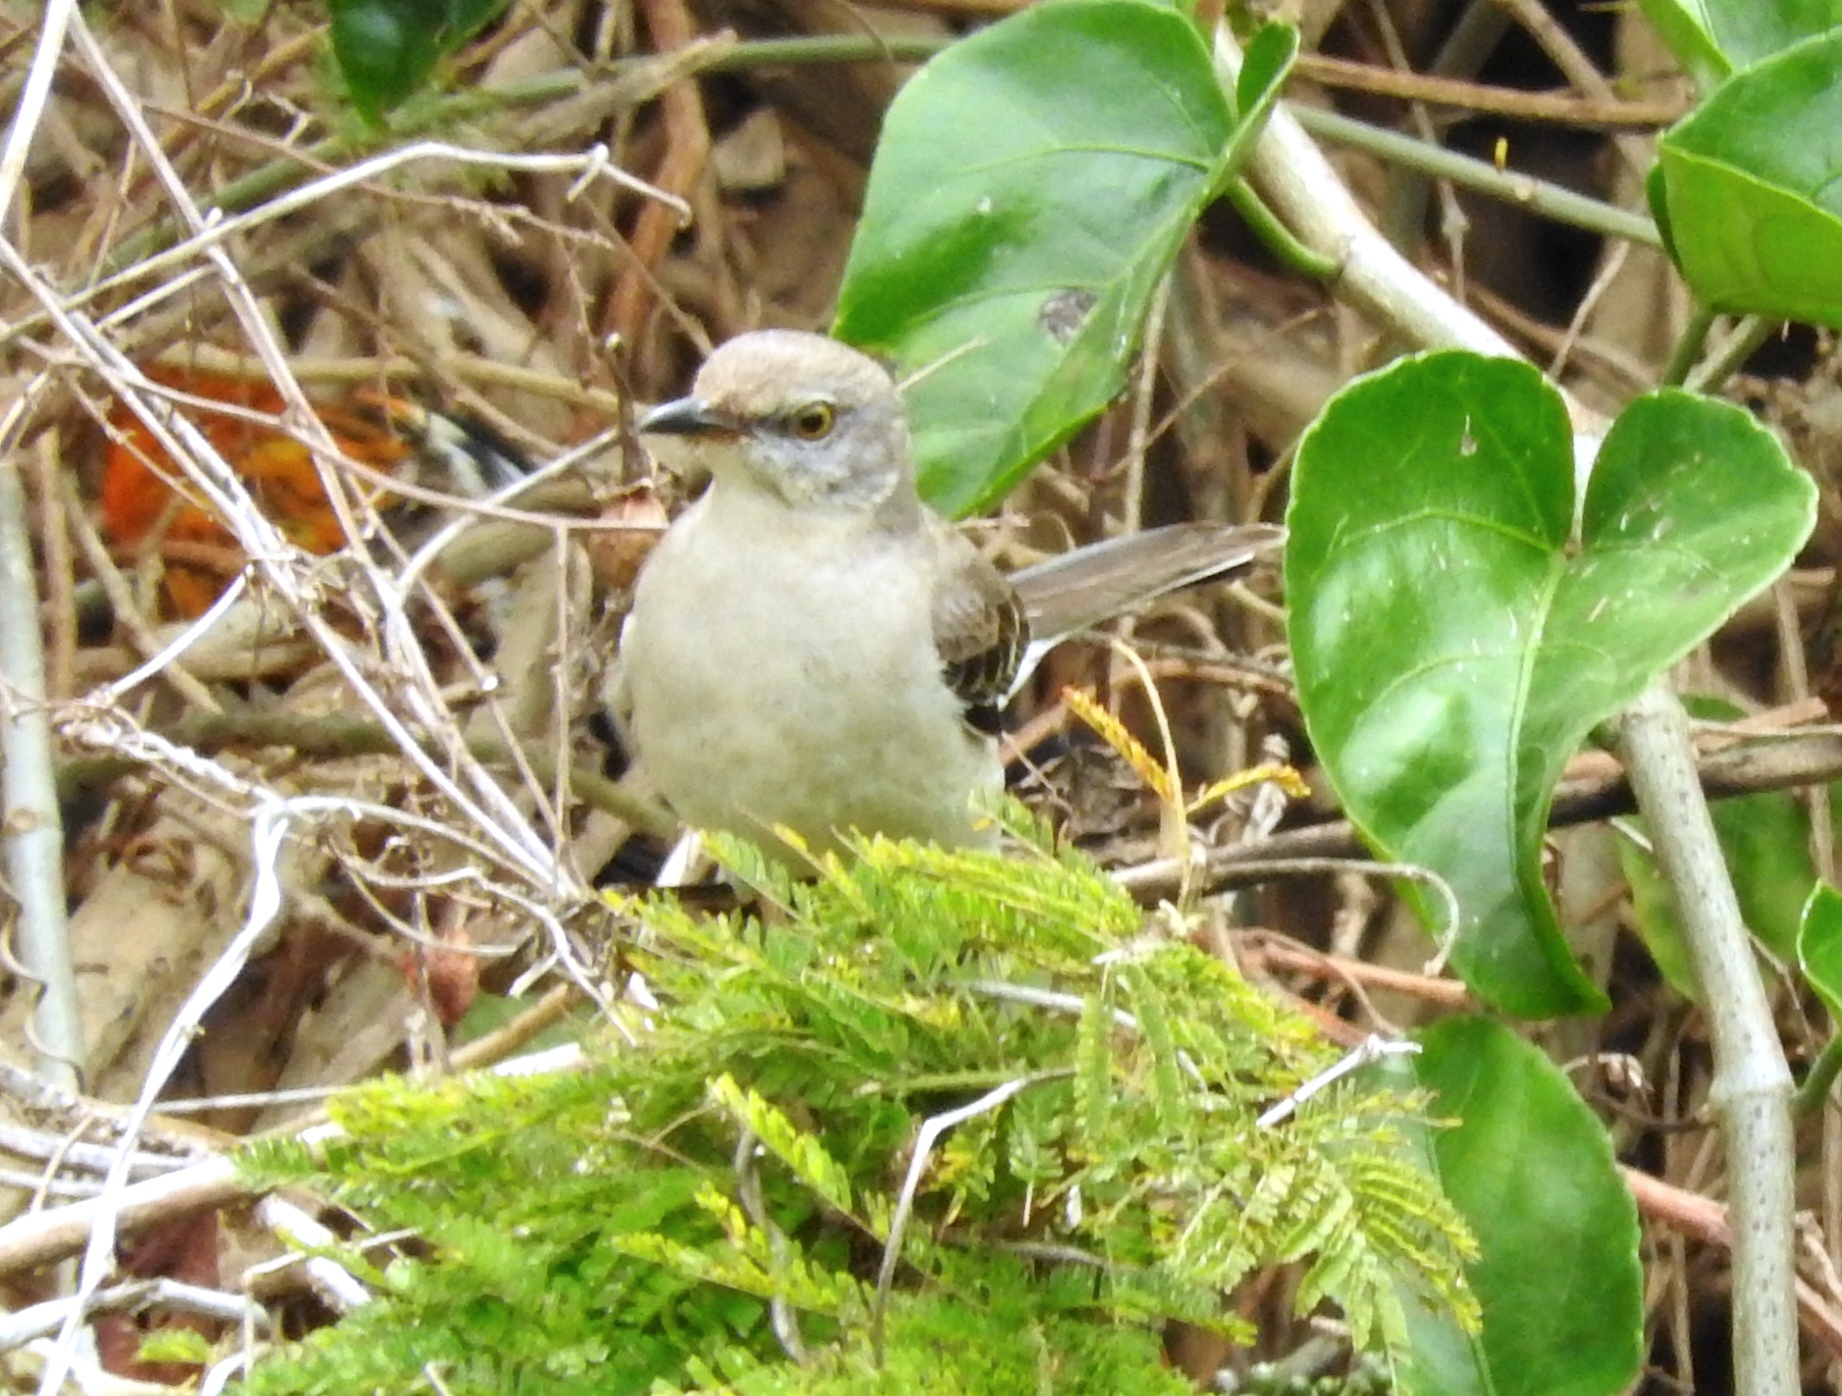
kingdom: Animalia
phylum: Chordata
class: Aves
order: Passeriformes
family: Mimidae
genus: Mimus
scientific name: Mimus polyglottos
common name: Northern mockingbird
